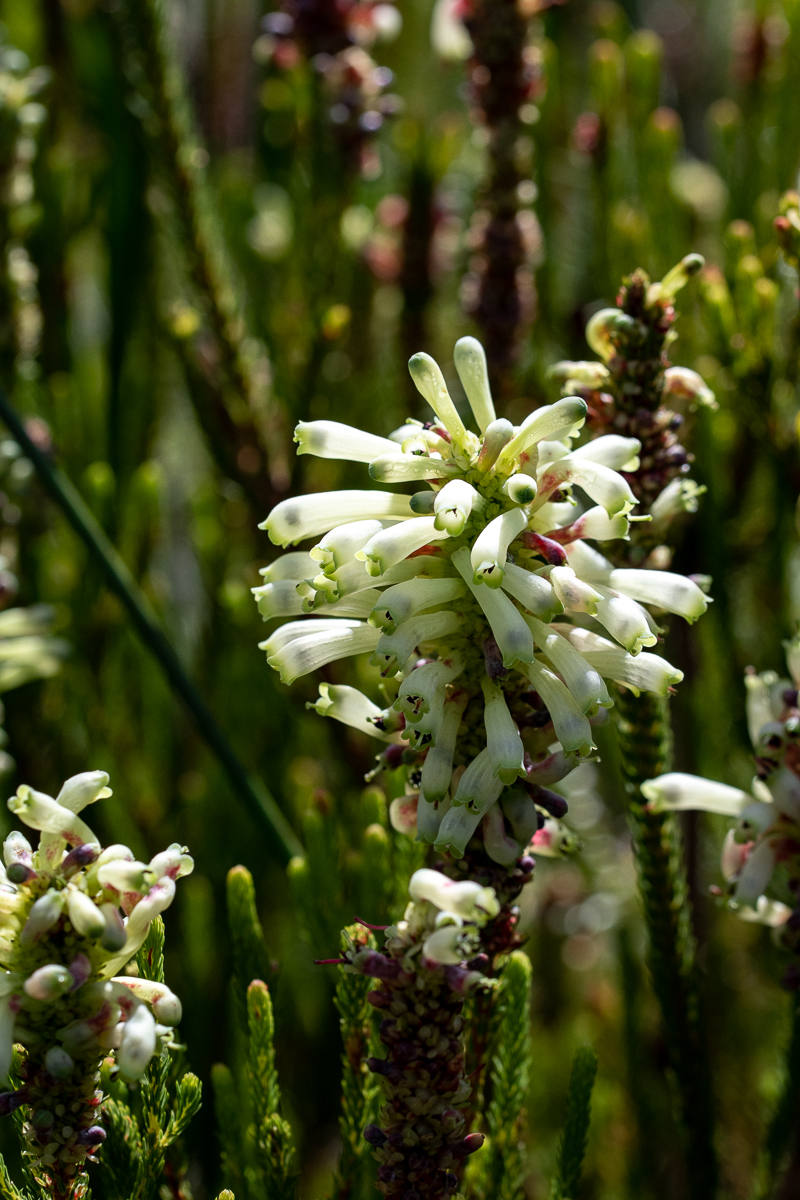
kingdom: Plantae
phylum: Tracheophyta
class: Magnoliopsida
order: Ericales
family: Ericaceae
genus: Erica
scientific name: Erica sessiliflora
